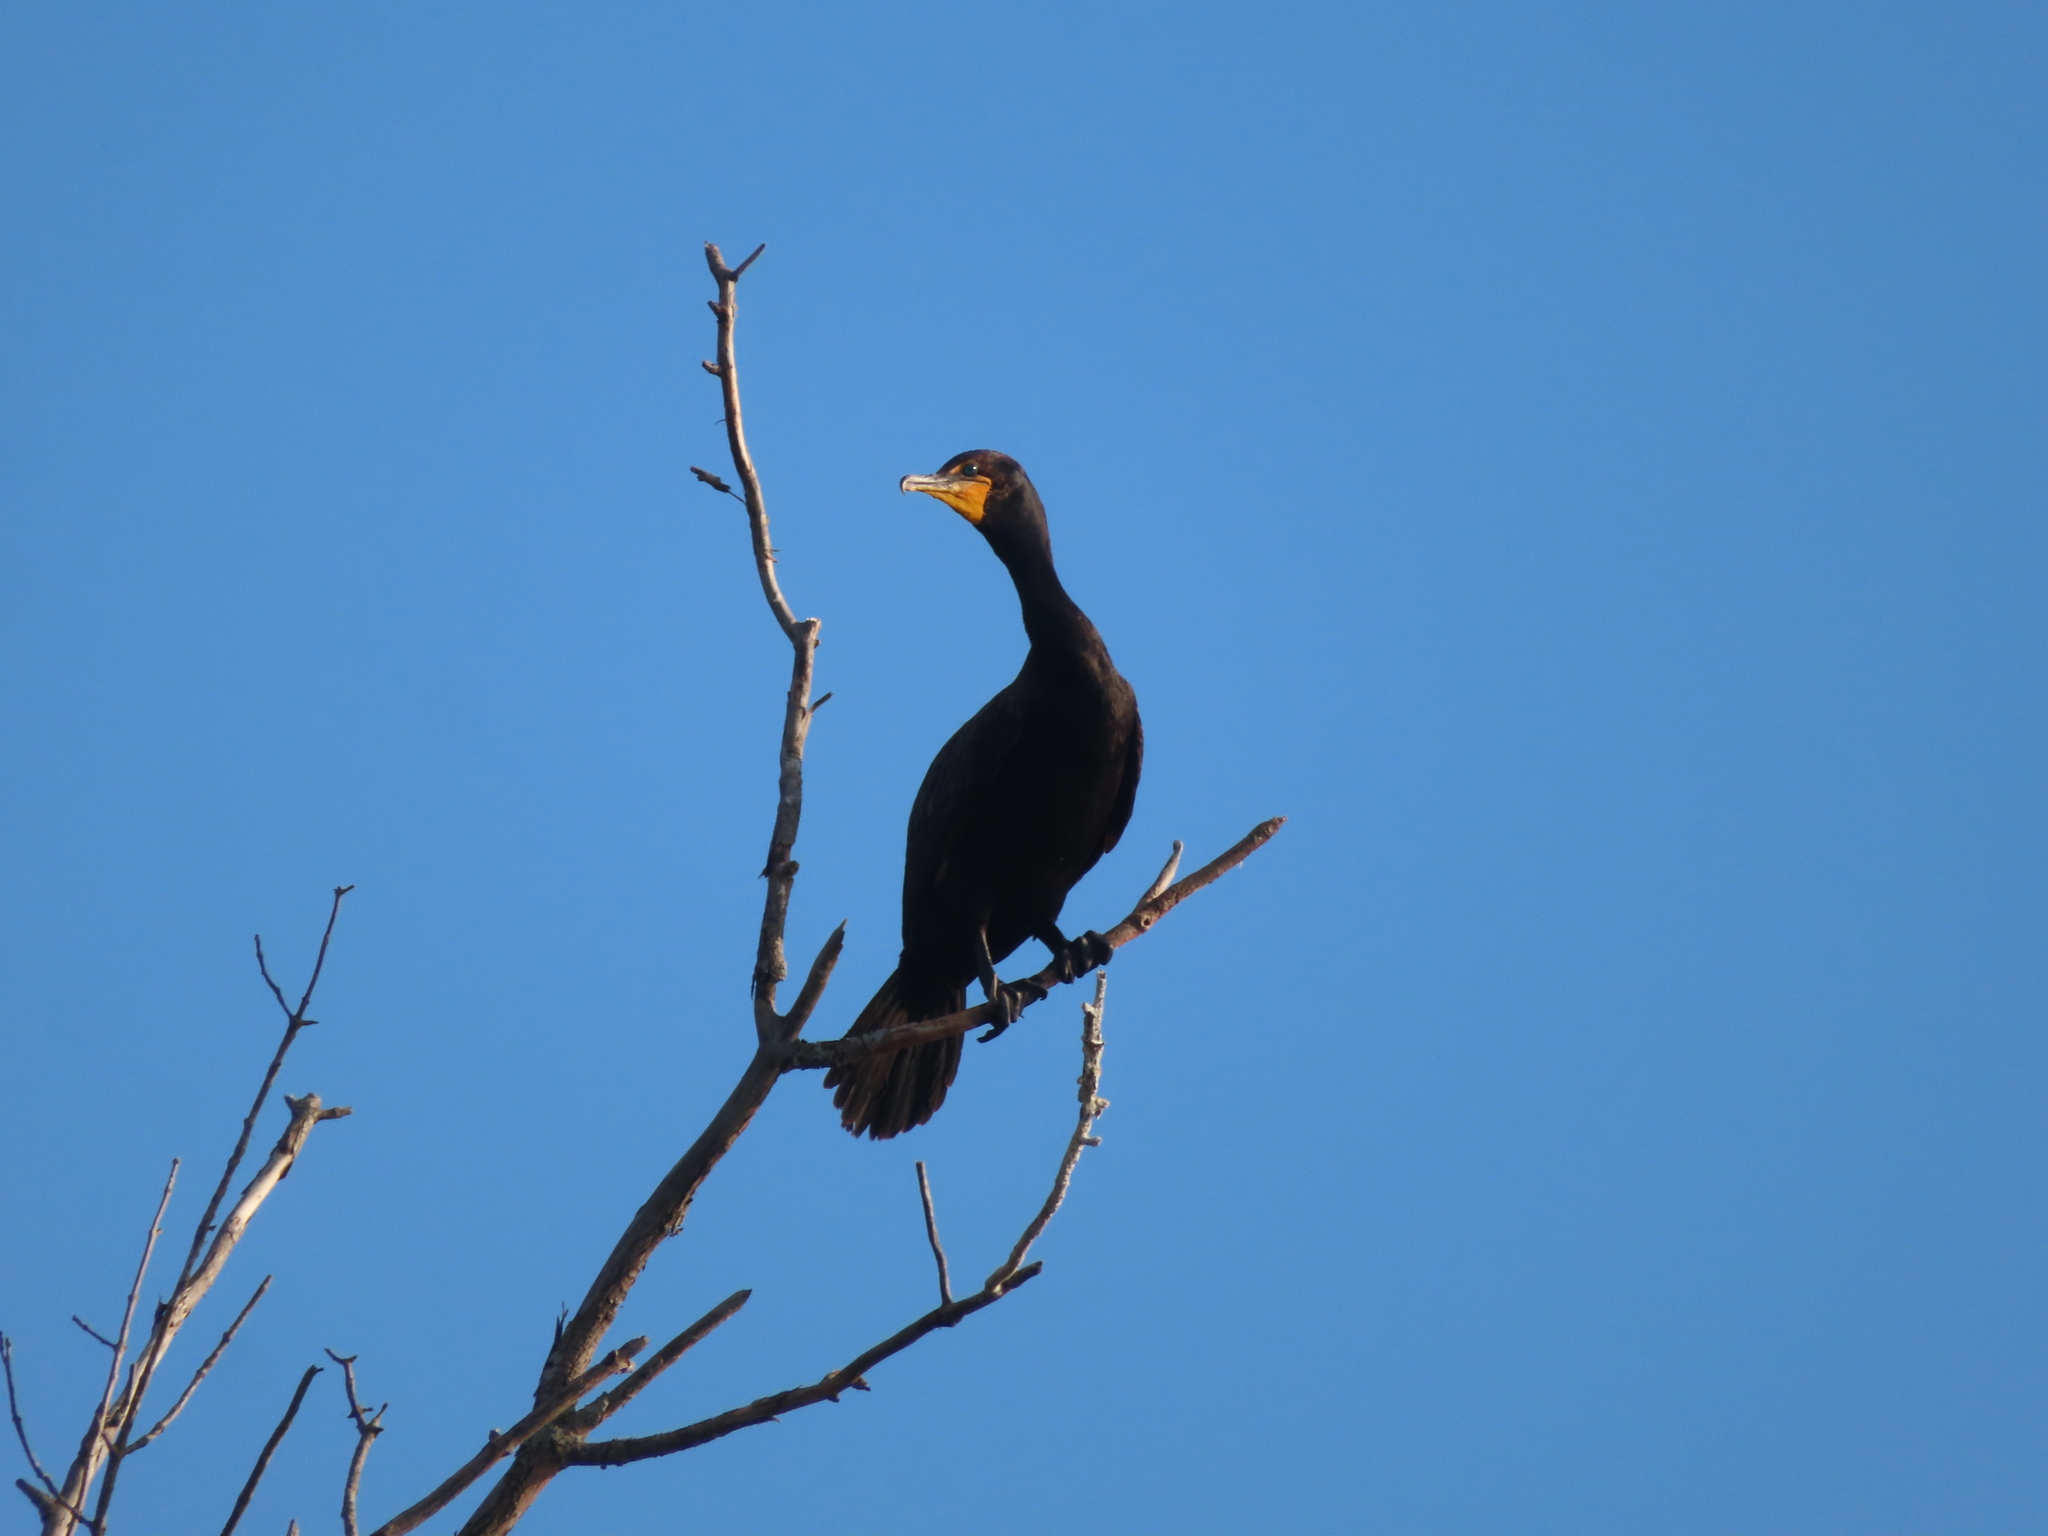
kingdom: Animalia
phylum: Chordata
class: Aves
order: Suliformes
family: Phalacrocoracidae
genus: Phalacrocorax
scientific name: Phalacrocorax auritus
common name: Double-crested cormorant
